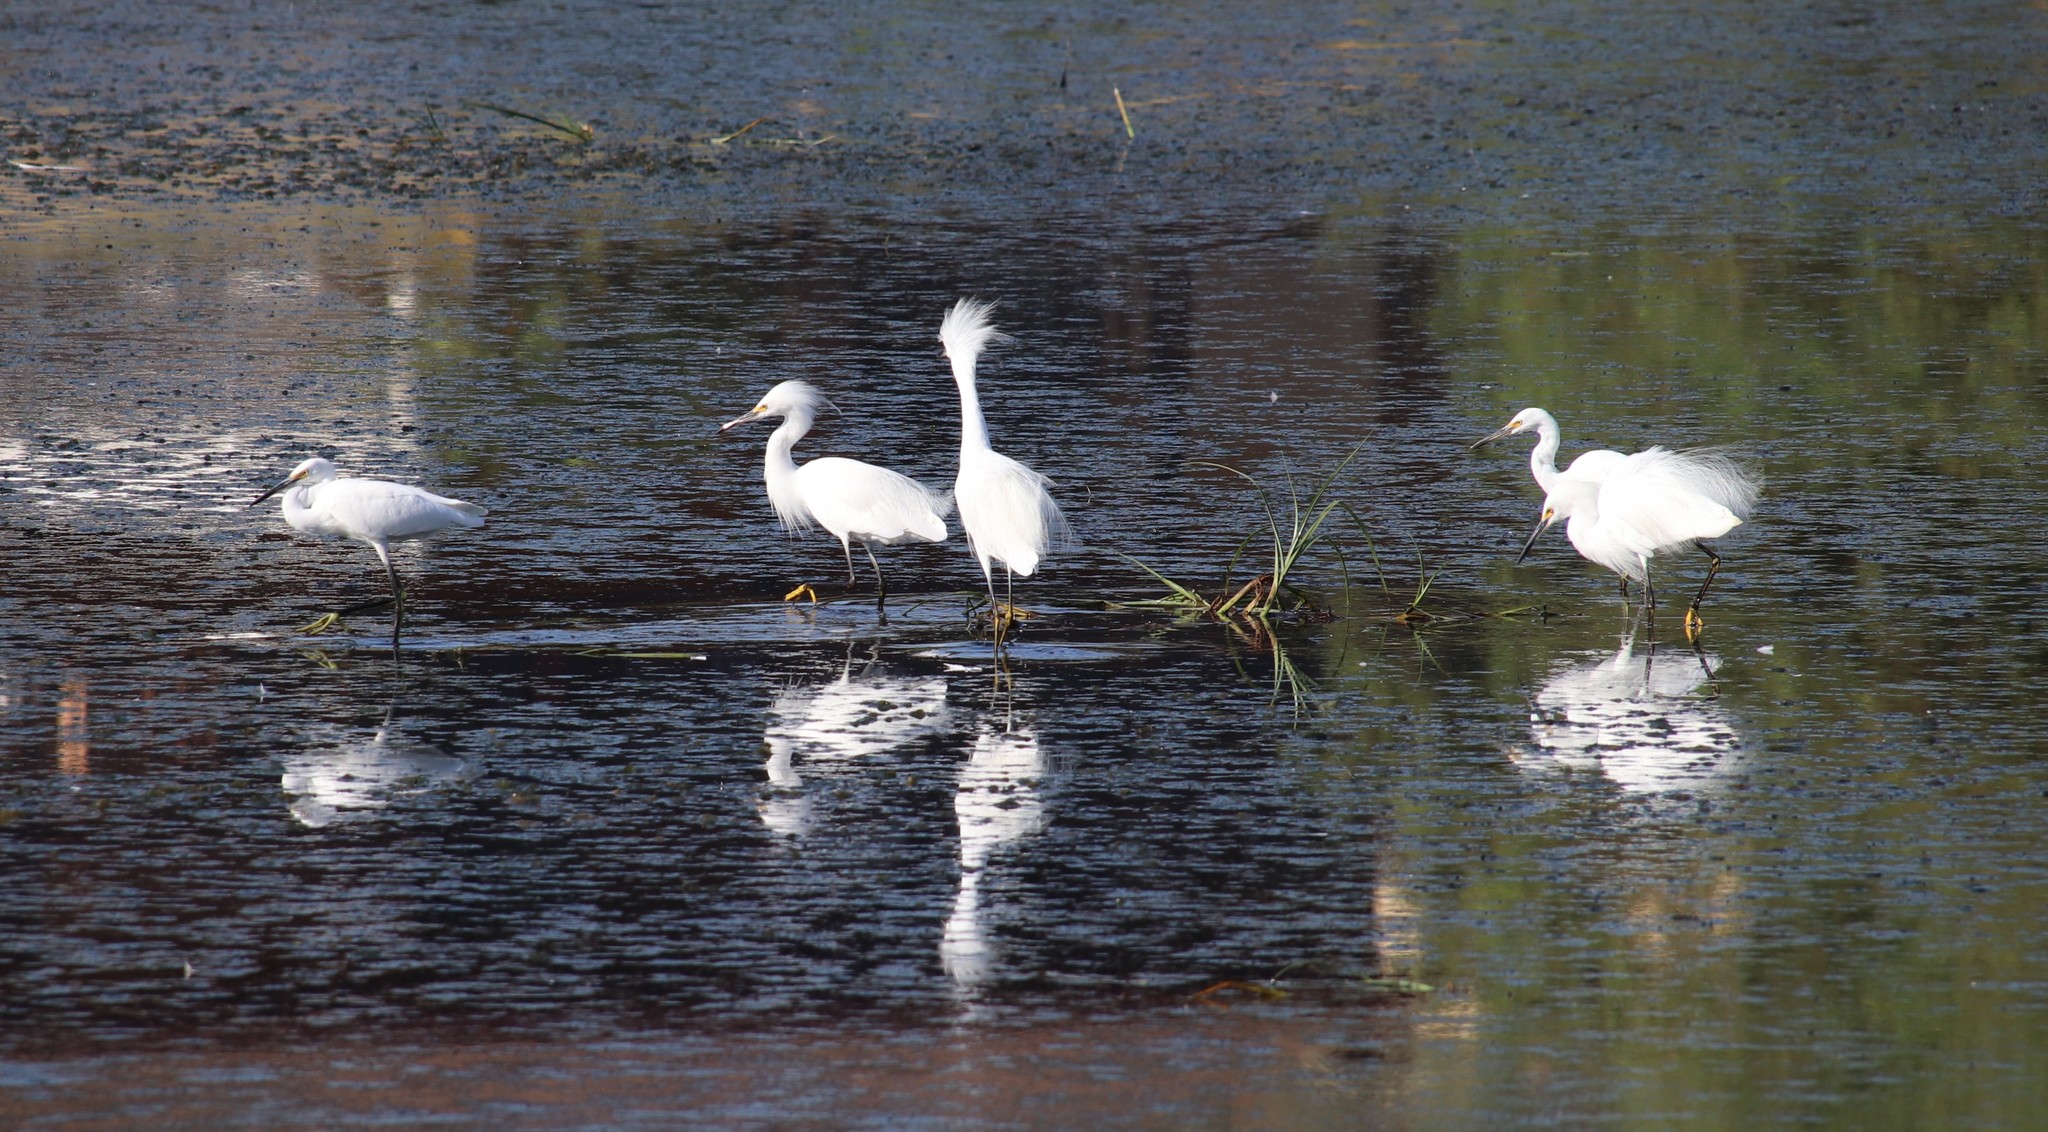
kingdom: Animalia
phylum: Chordata
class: Aves
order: Pelecaniformes
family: Ardeidae
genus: Egretta
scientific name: Egretta thula
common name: Snowy egret
